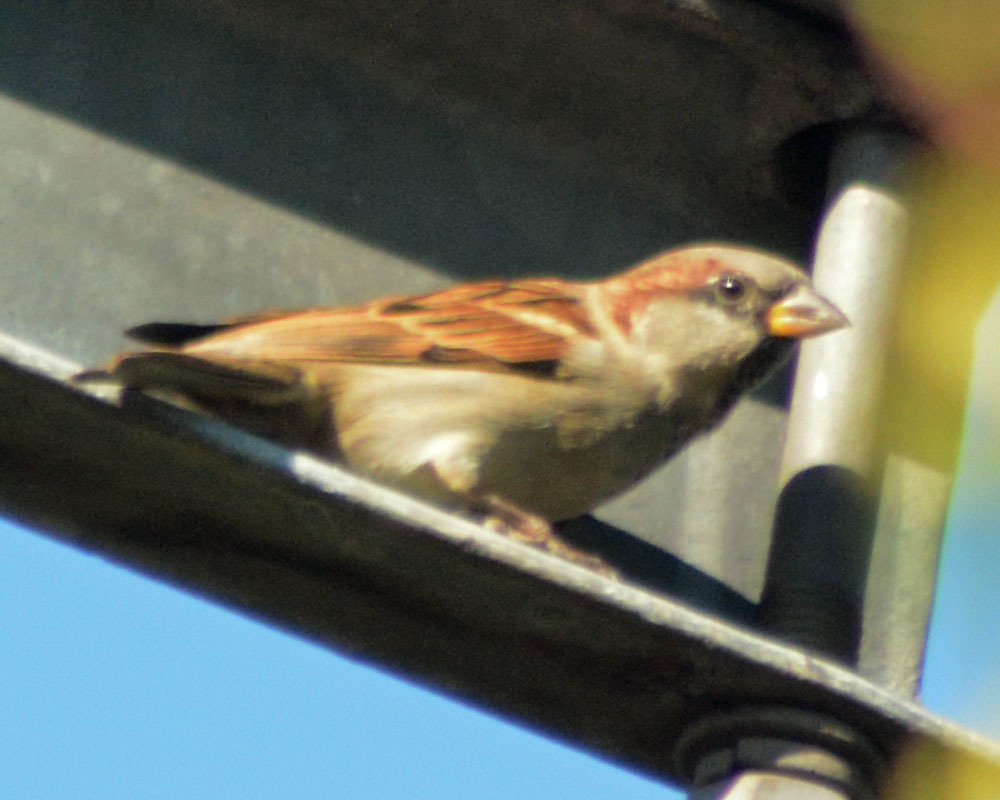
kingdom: Animalia
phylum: Chordata
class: Aves
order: Passeriformes
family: Passeridae
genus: Passer
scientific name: Passer domesticus
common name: House sparrow
